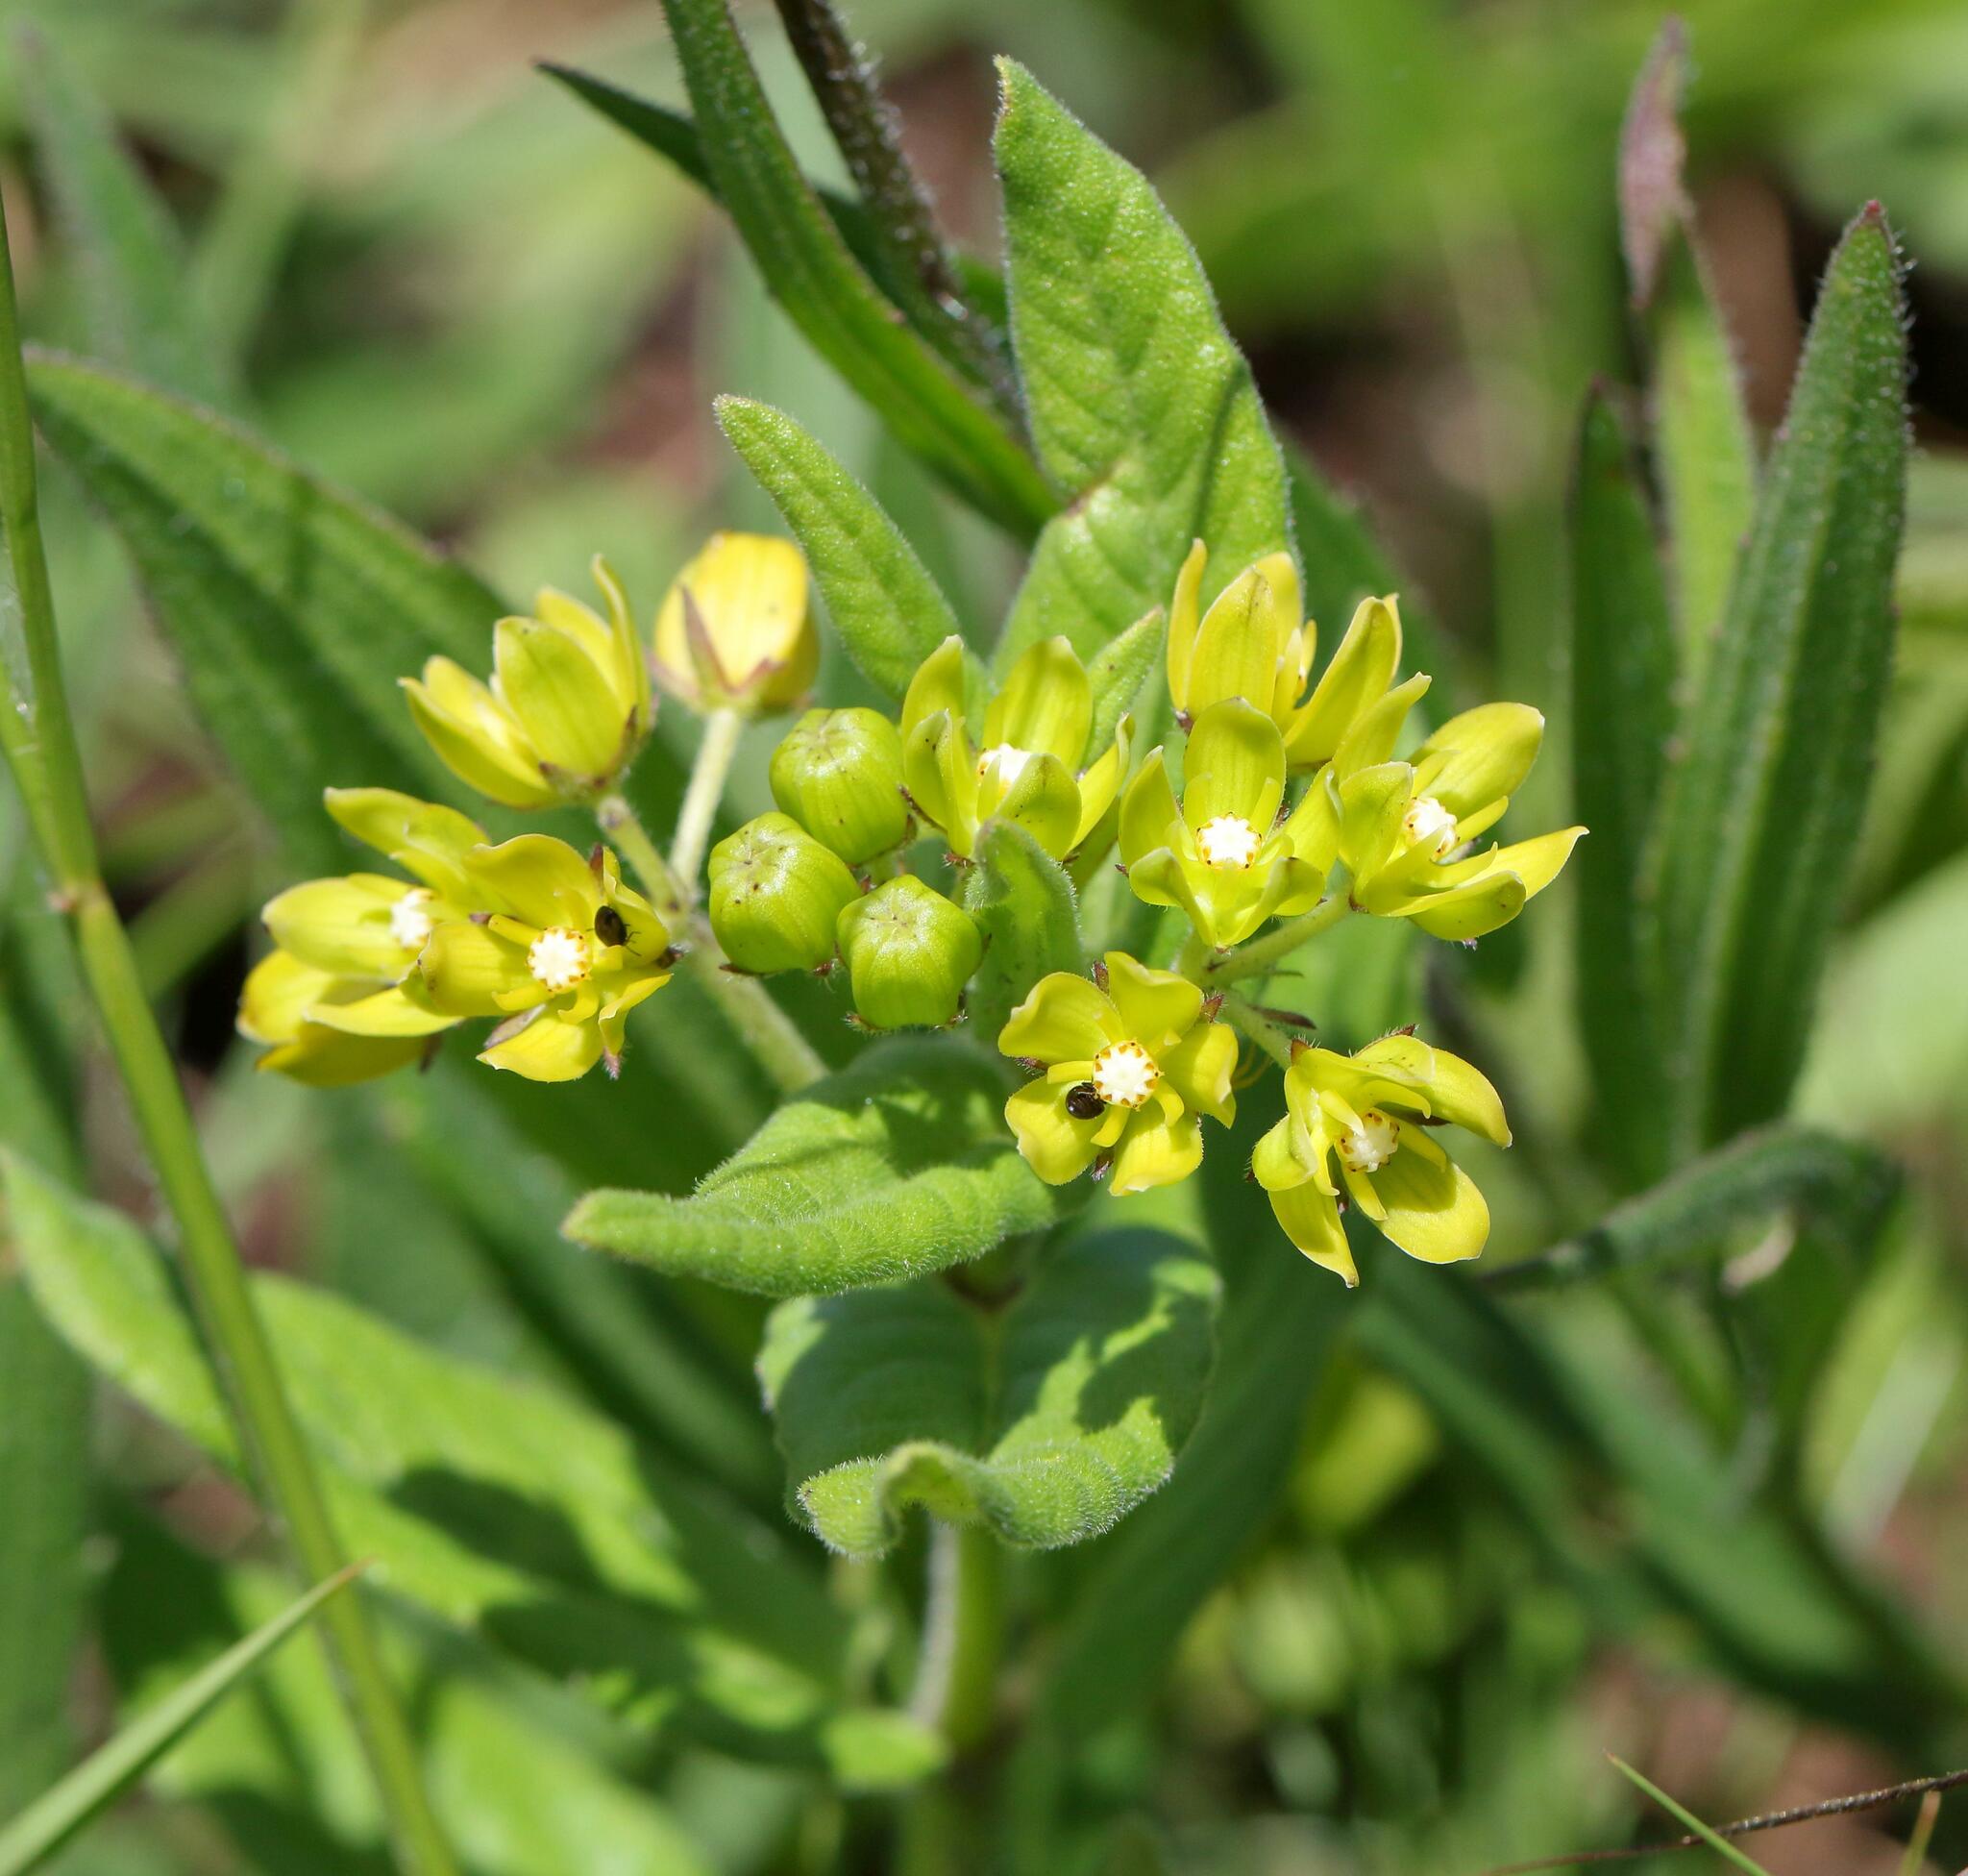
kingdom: Plantae
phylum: Tracheophyta
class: Magnoliopsida
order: Gentianales
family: Apocynaceae
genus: Schizoglossum
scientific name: Schizoglossum flavum
